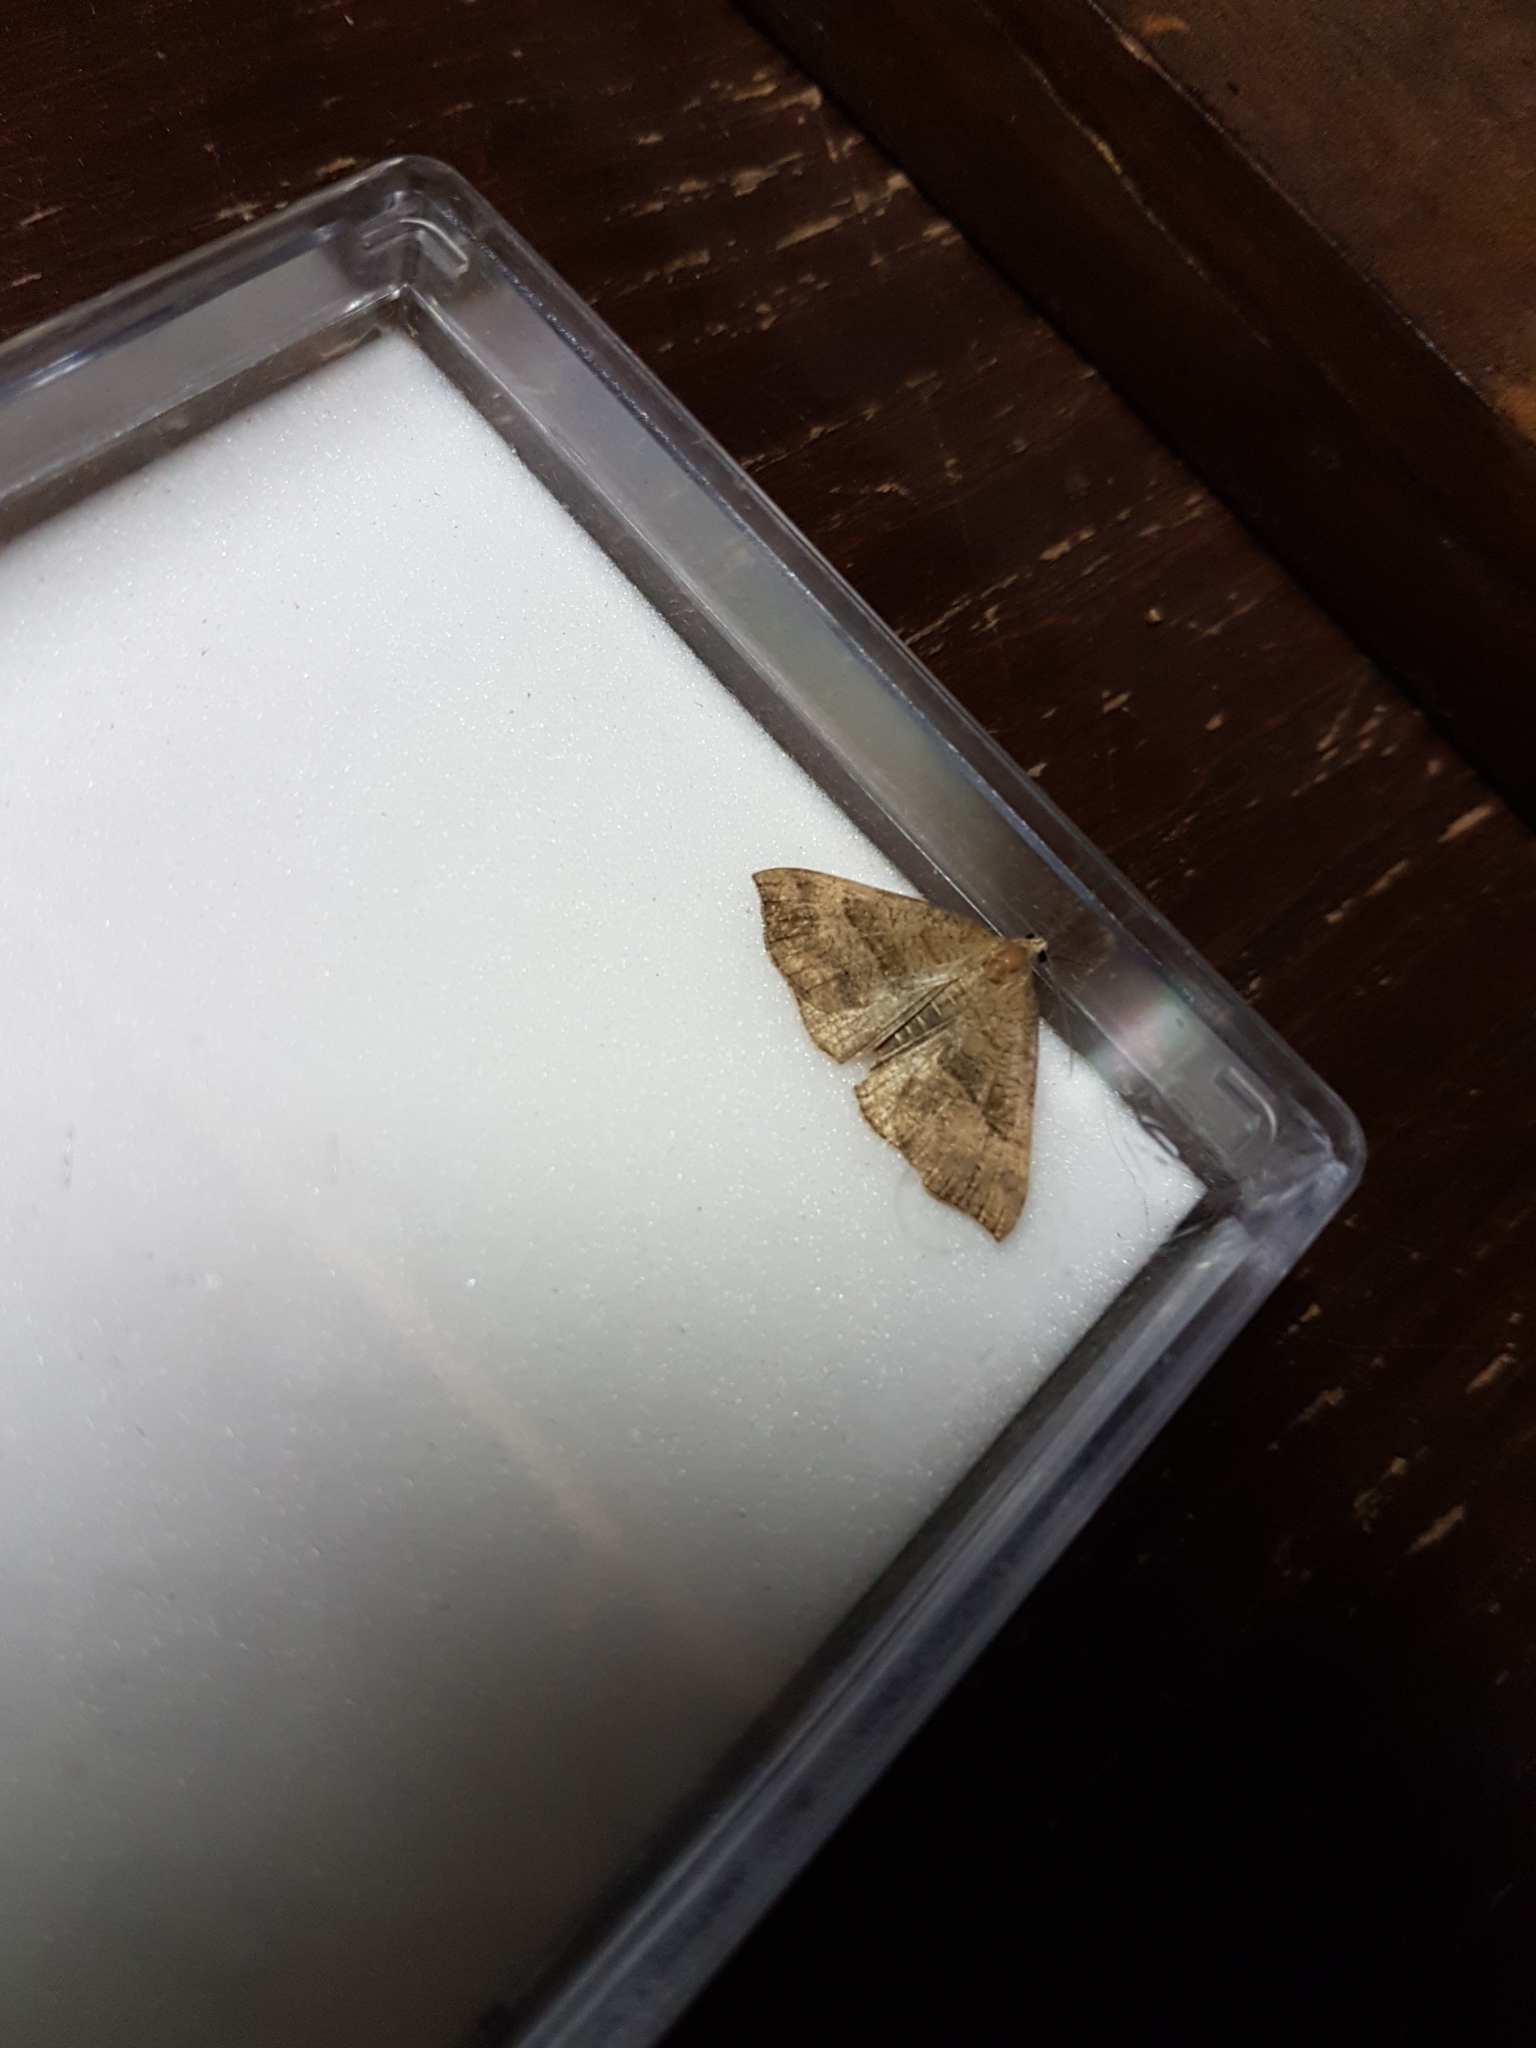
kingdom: Animalia
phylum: Arthropoda
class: Insecta
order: Lepidoptera
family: Erebidae
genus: Hypena
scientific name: Hypena proboscidalis
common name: Snout
